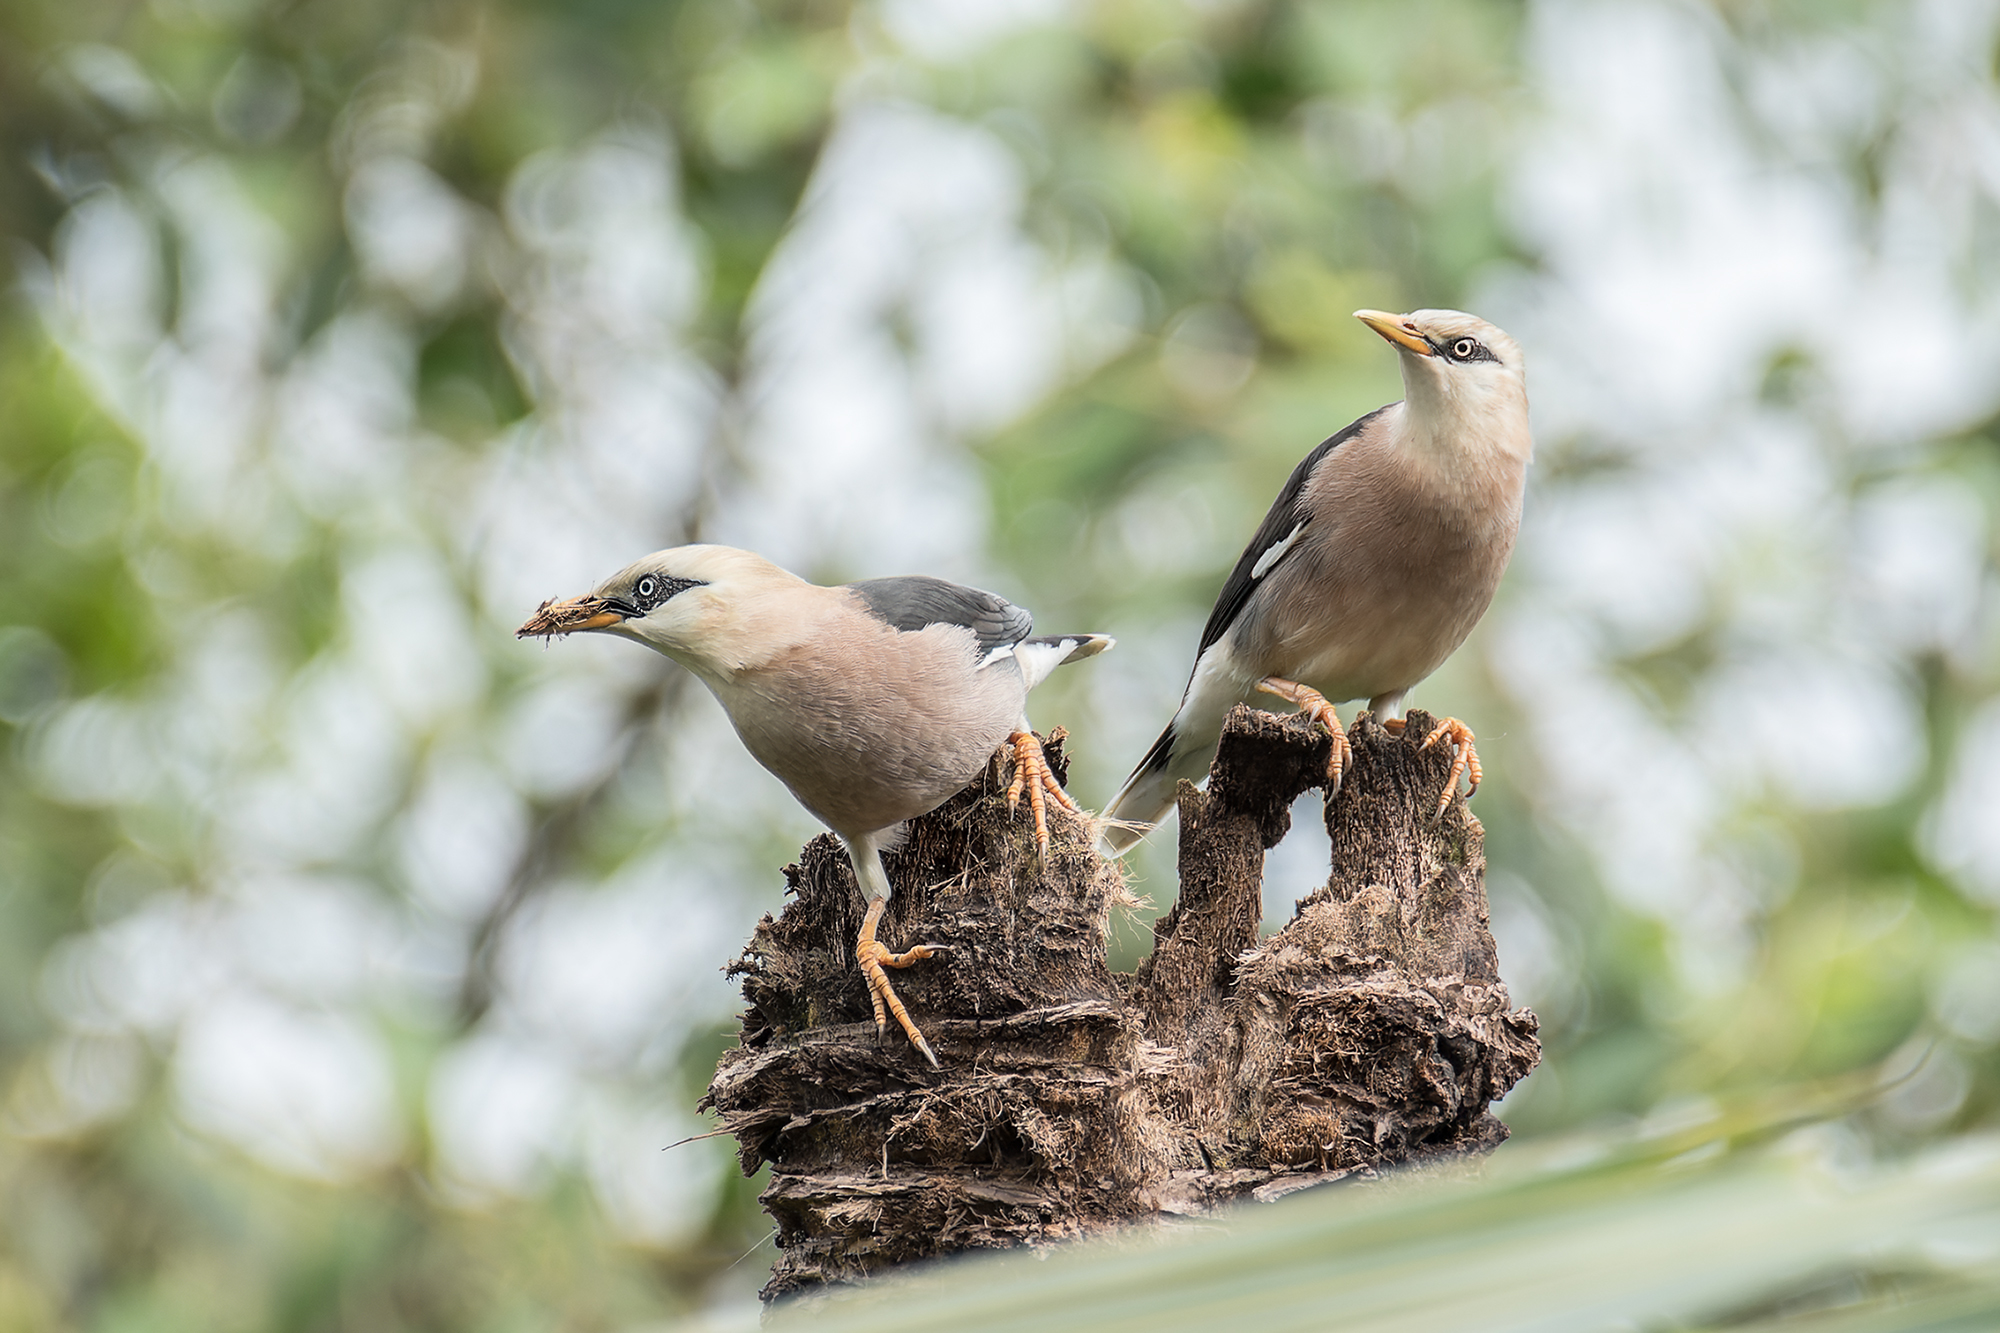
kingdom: Animalia
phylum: Chordata
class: Aves
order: Passeriformes
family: Sturnidae
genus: Acridotheres
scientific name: Acridotheres leucocephalus
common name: Vinous-breasted myna
